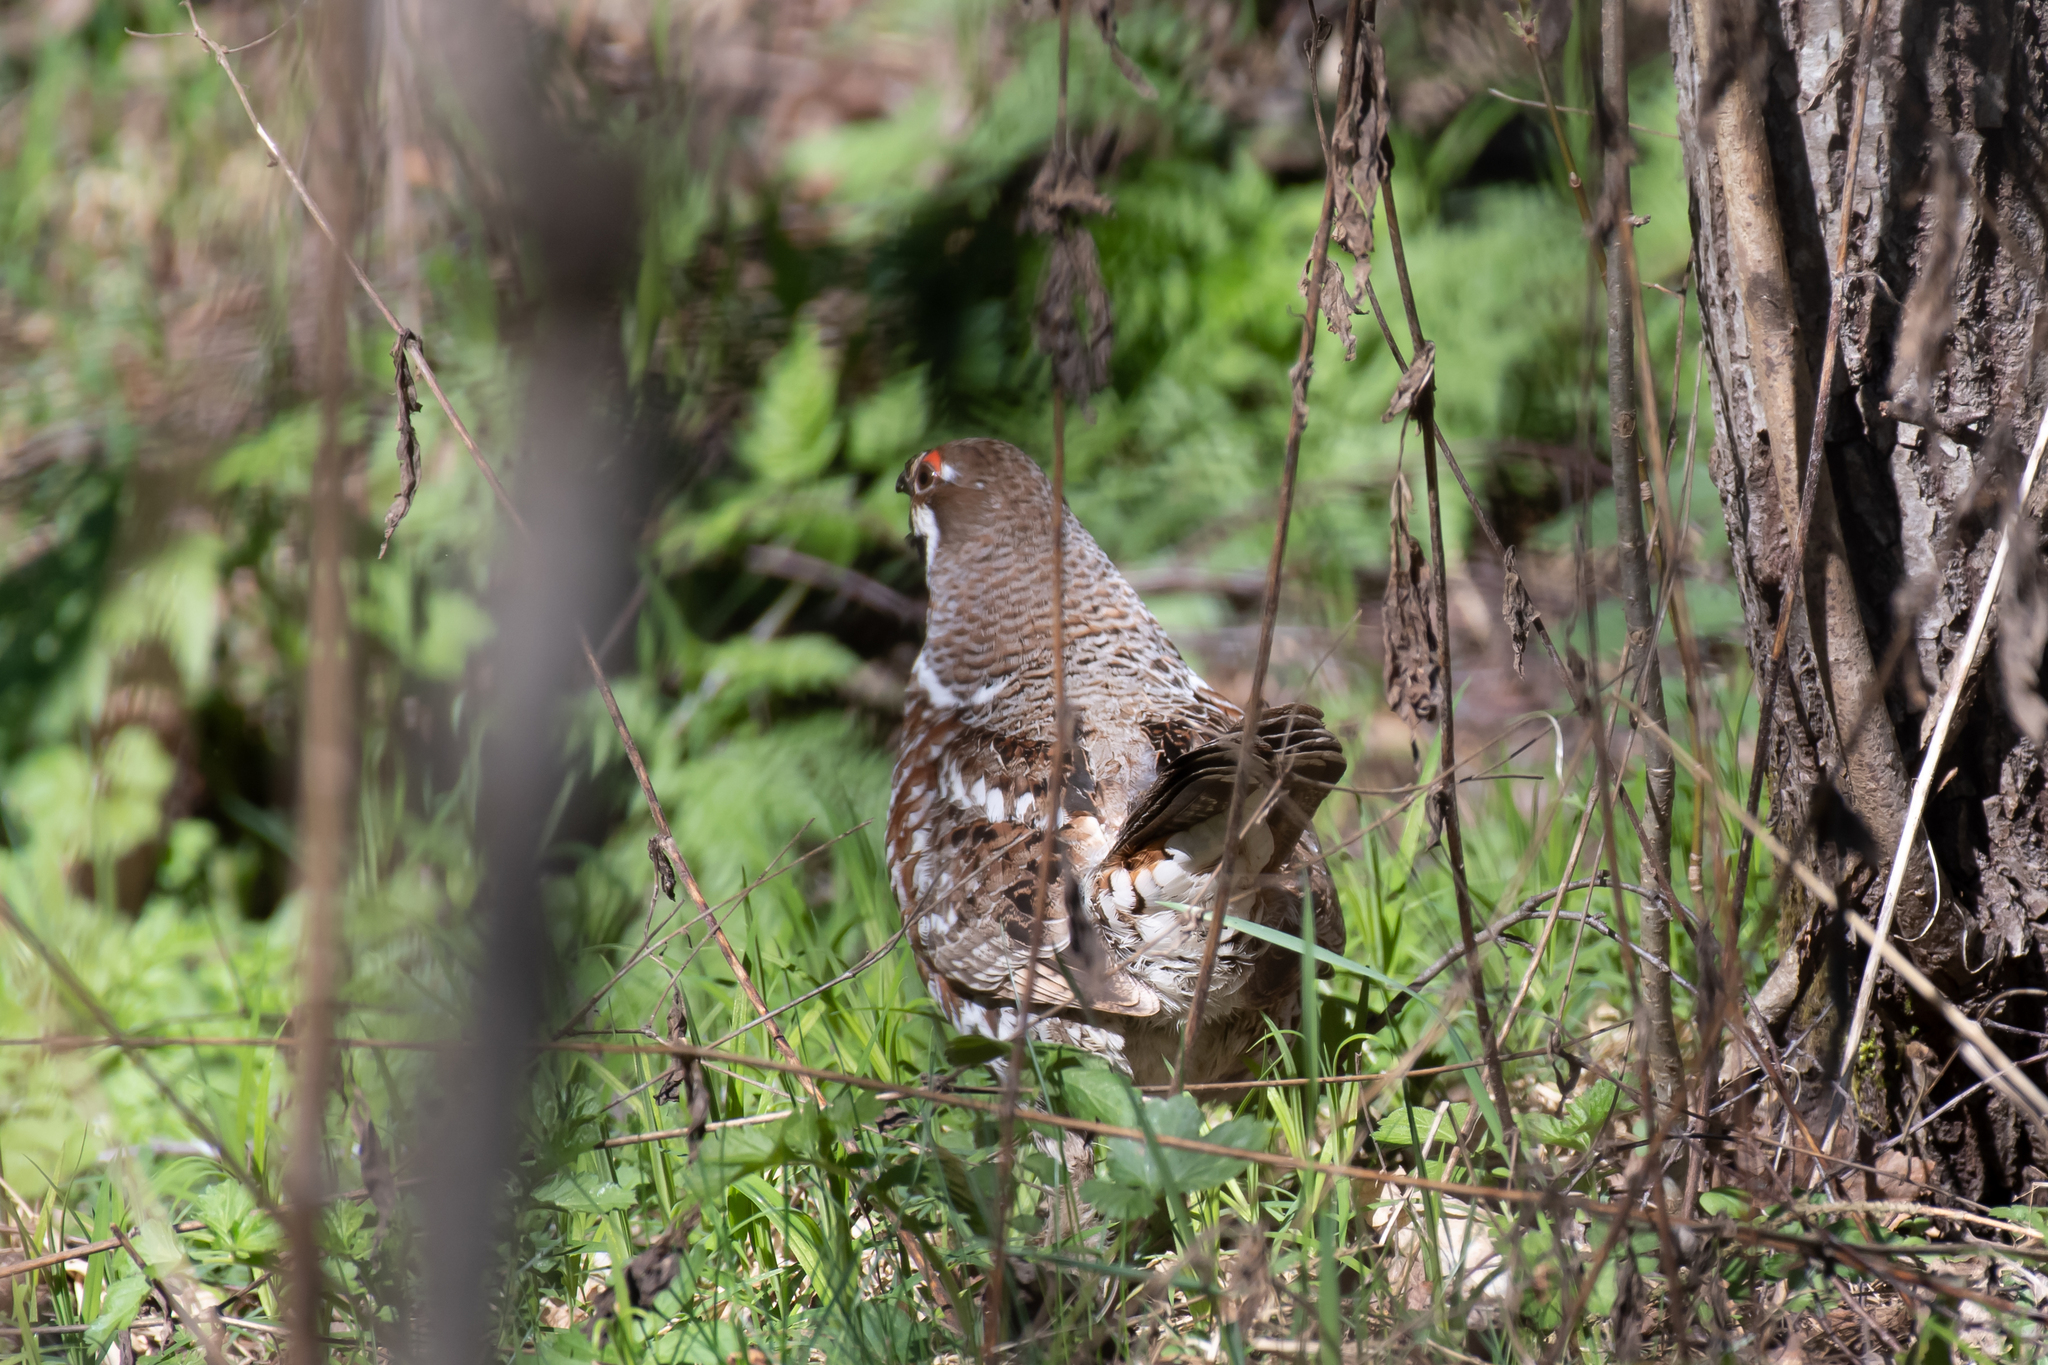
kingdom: Animalia
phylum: Chordata
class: Aves
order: Galliformes
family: Phasianidae
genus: Tetrastes
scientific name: Tetrastes bonasia
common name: Hazel grouse
